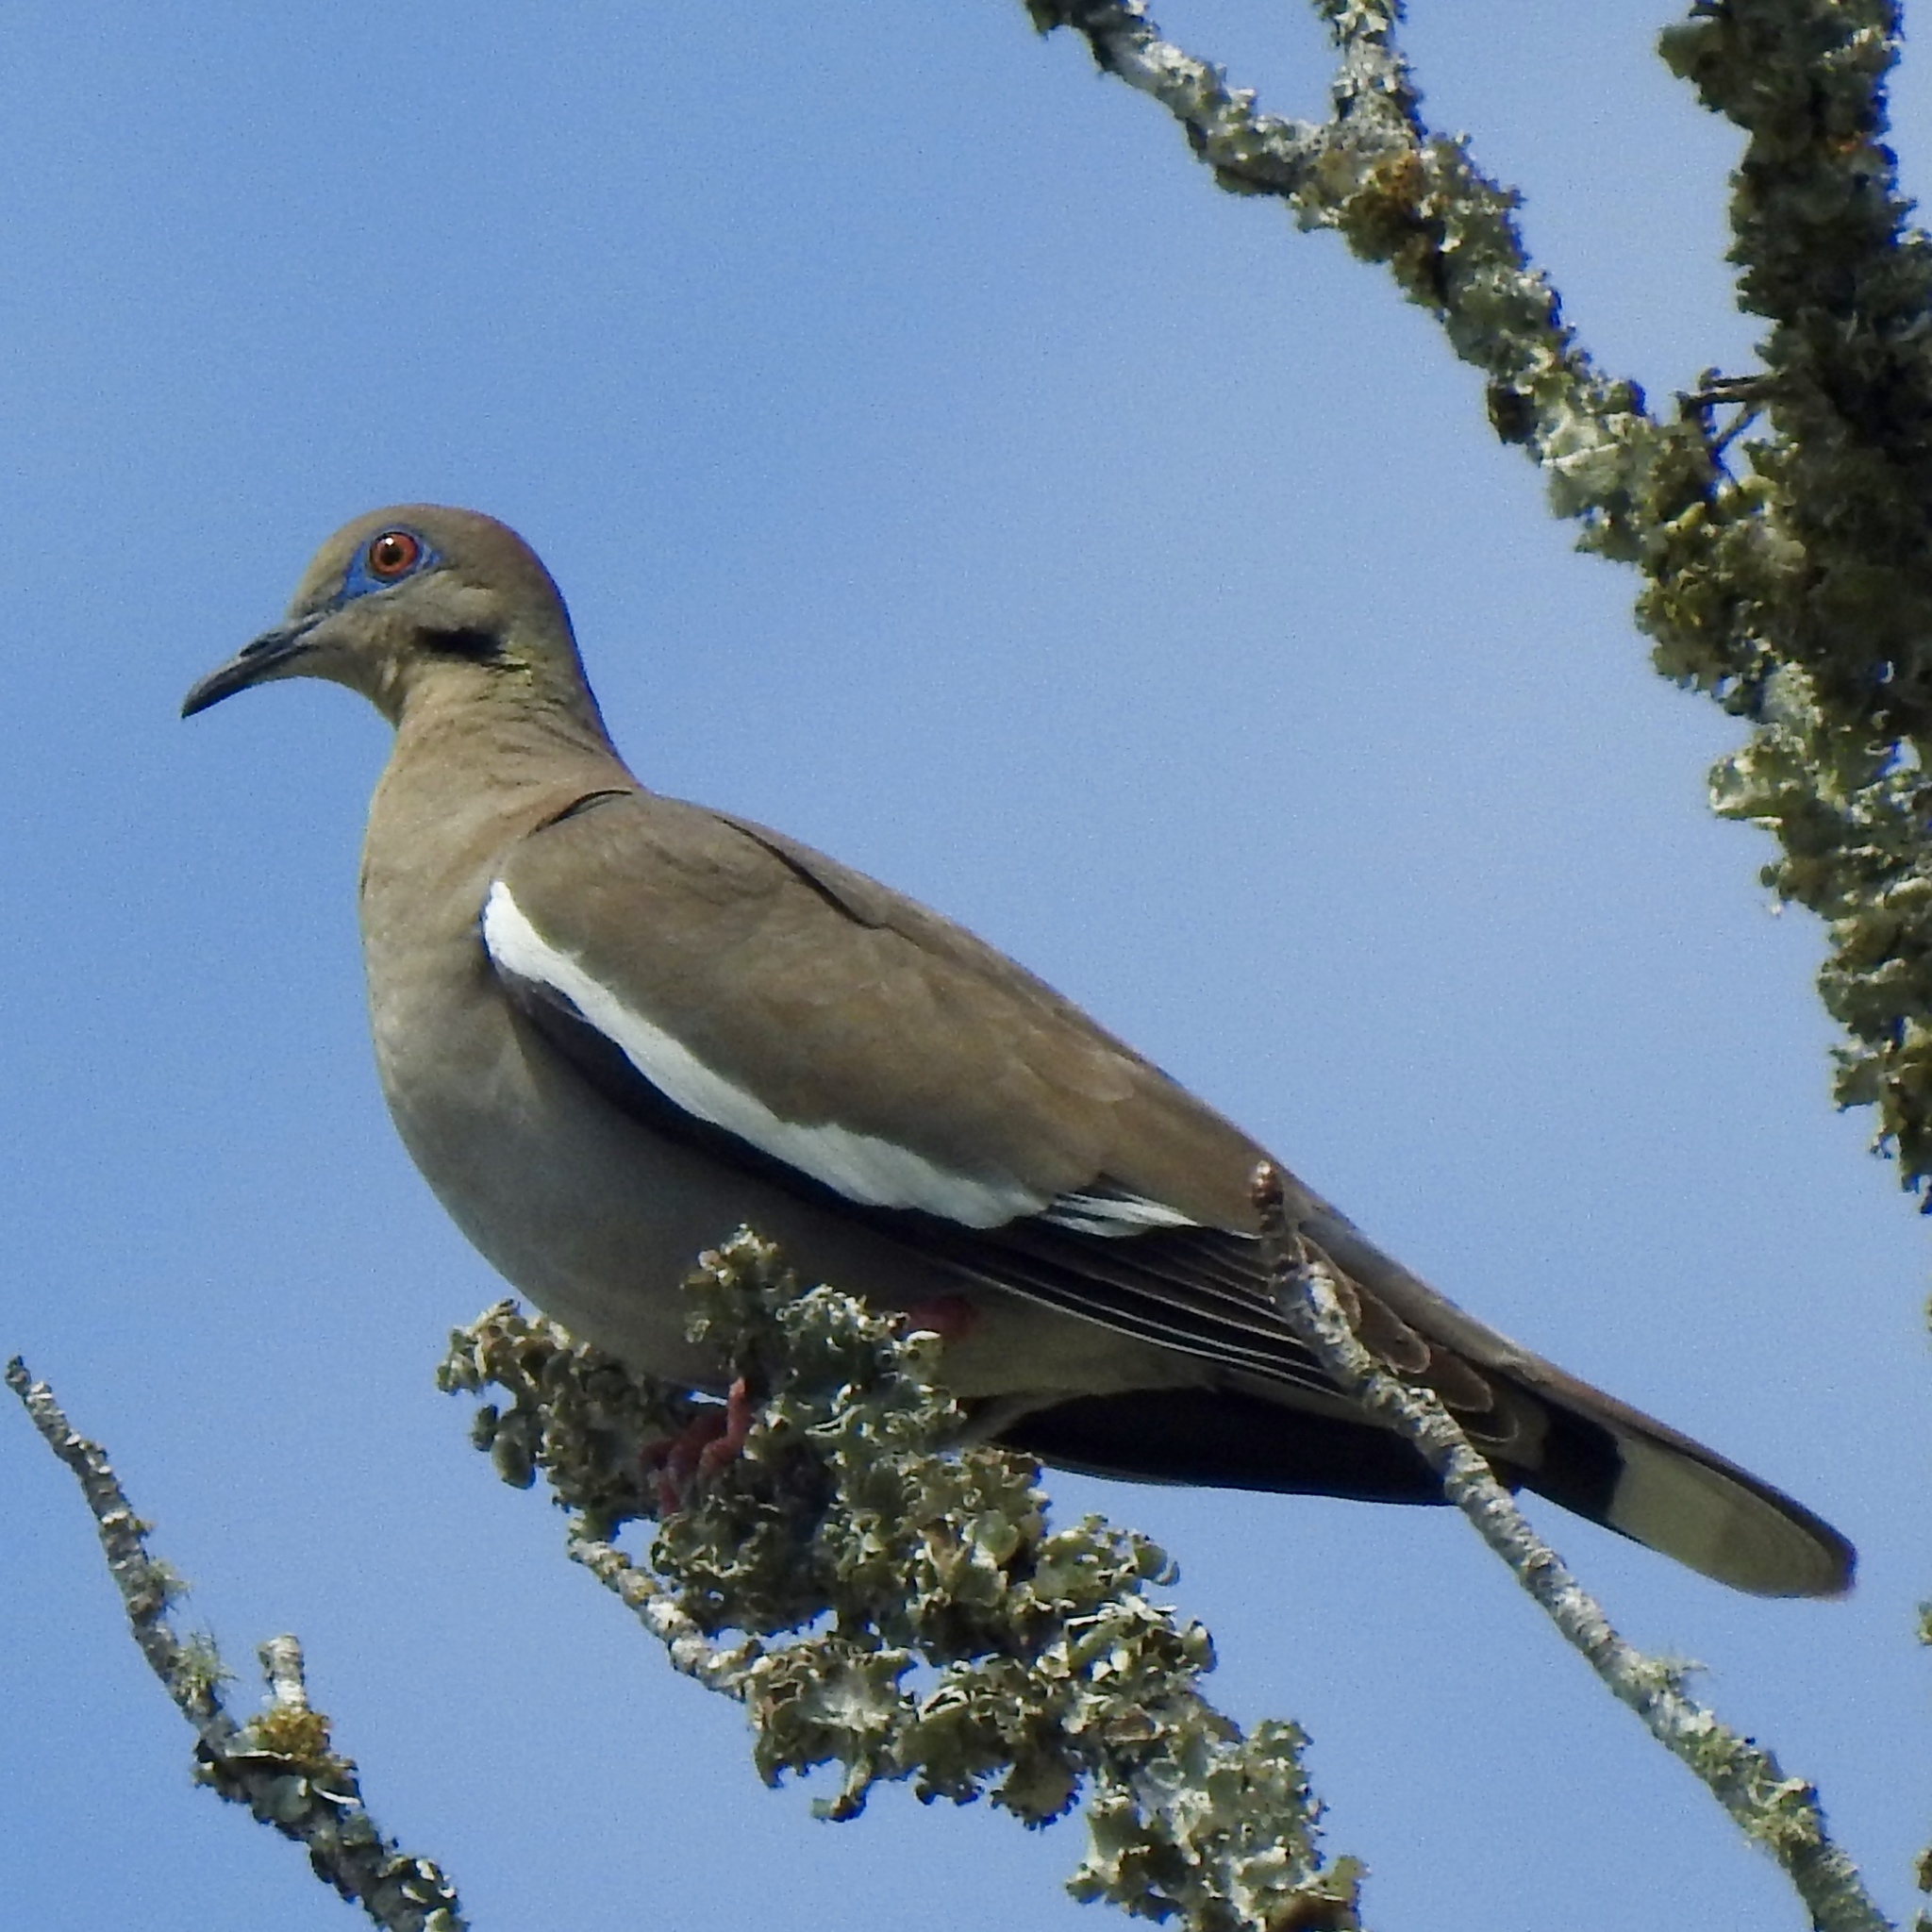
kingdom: Animalia
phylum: Chordata
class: Aves
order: Columbiformes
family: Columbidae
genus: Zenaida
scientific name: Zenaida asiatica
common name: White-winged dove
